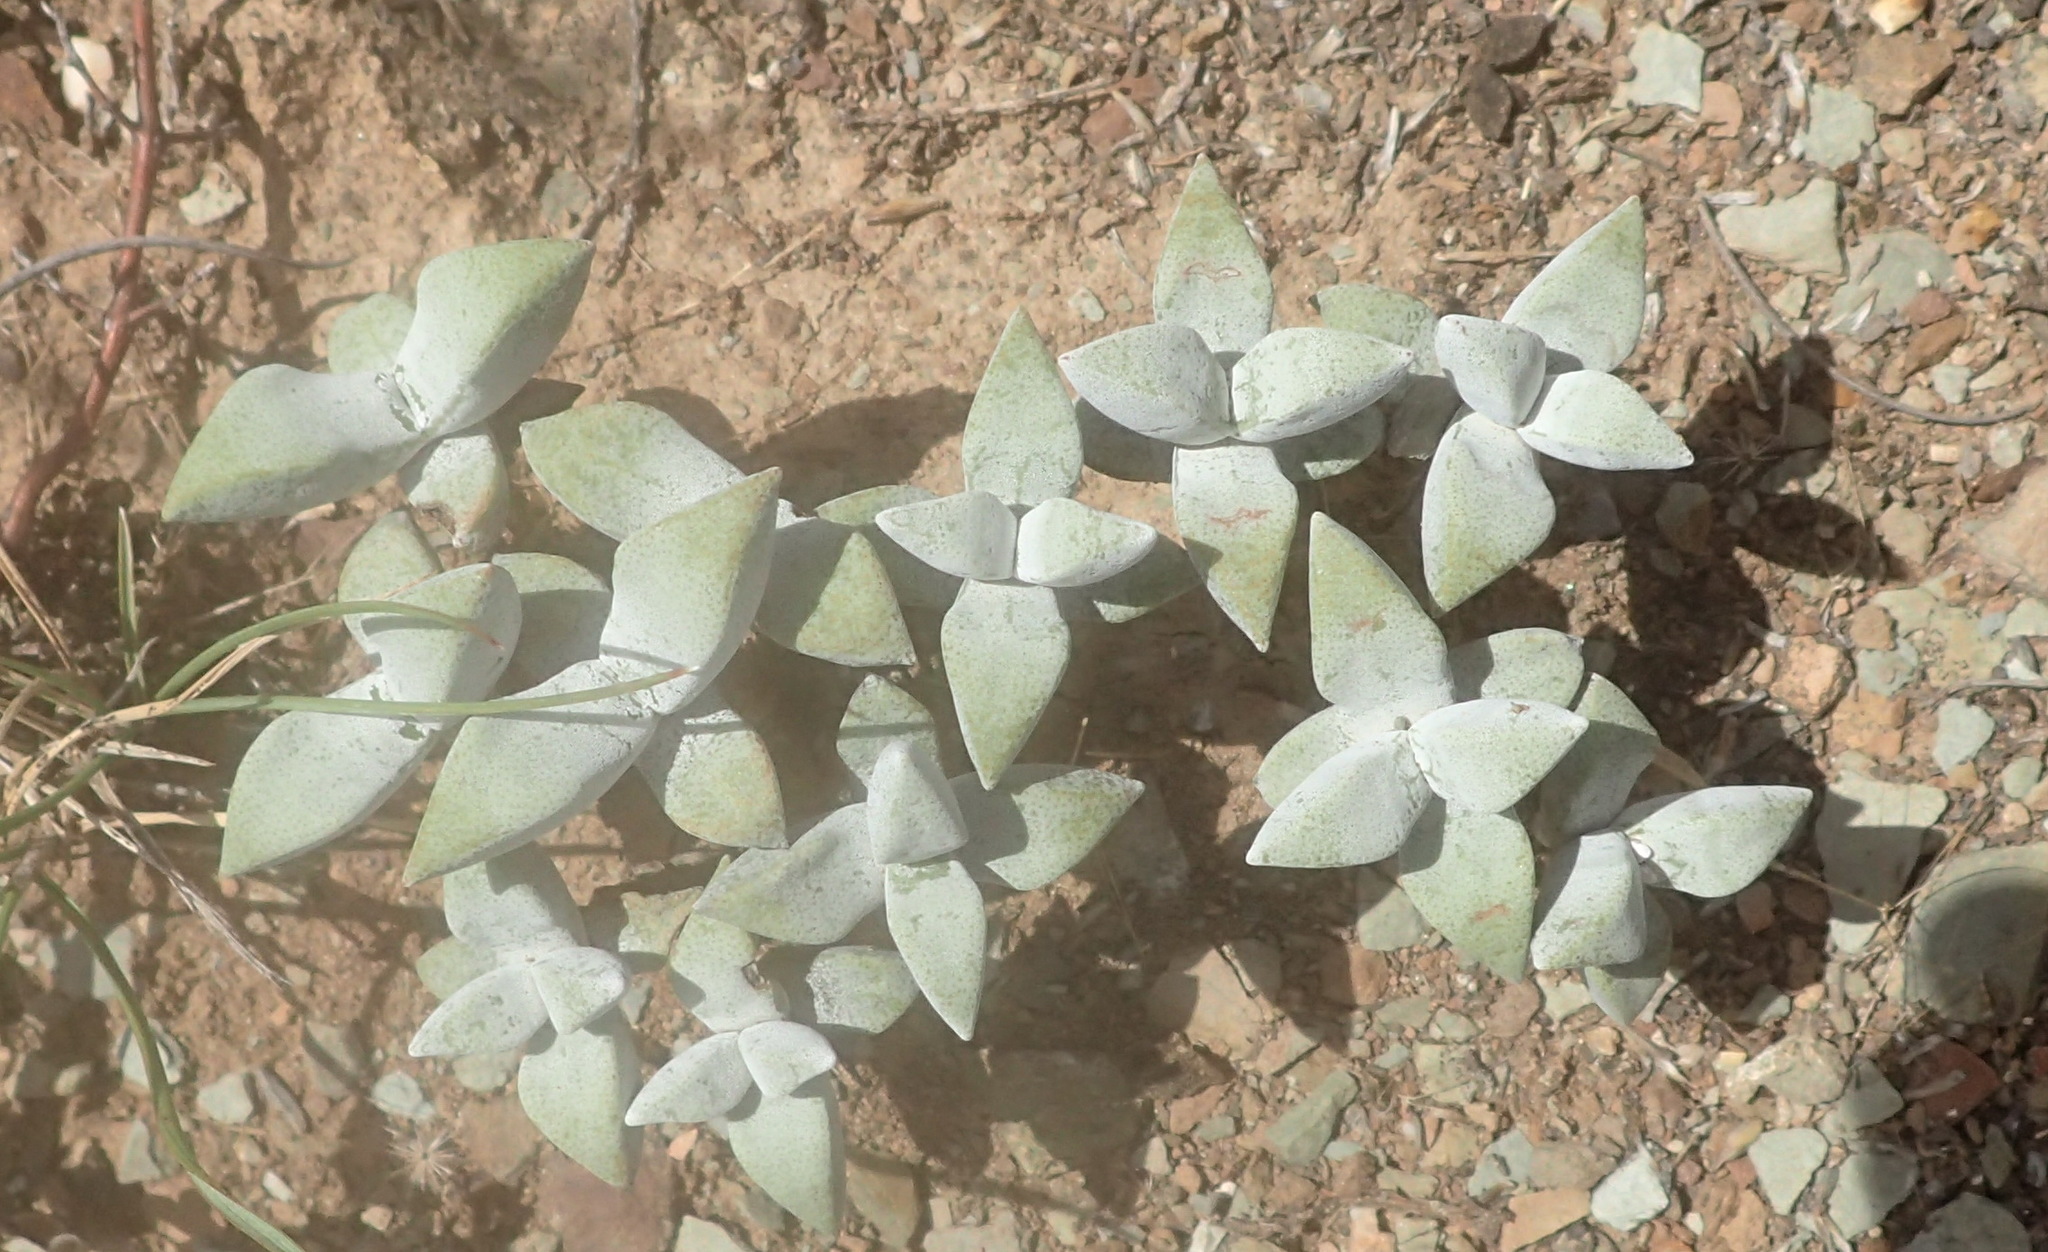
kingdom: Plantae
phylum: Tracheophyta
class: Magnoliopsida
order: Saxifragales
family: Crassulaceae
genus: Crassula
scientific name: Crassula deltoidea
